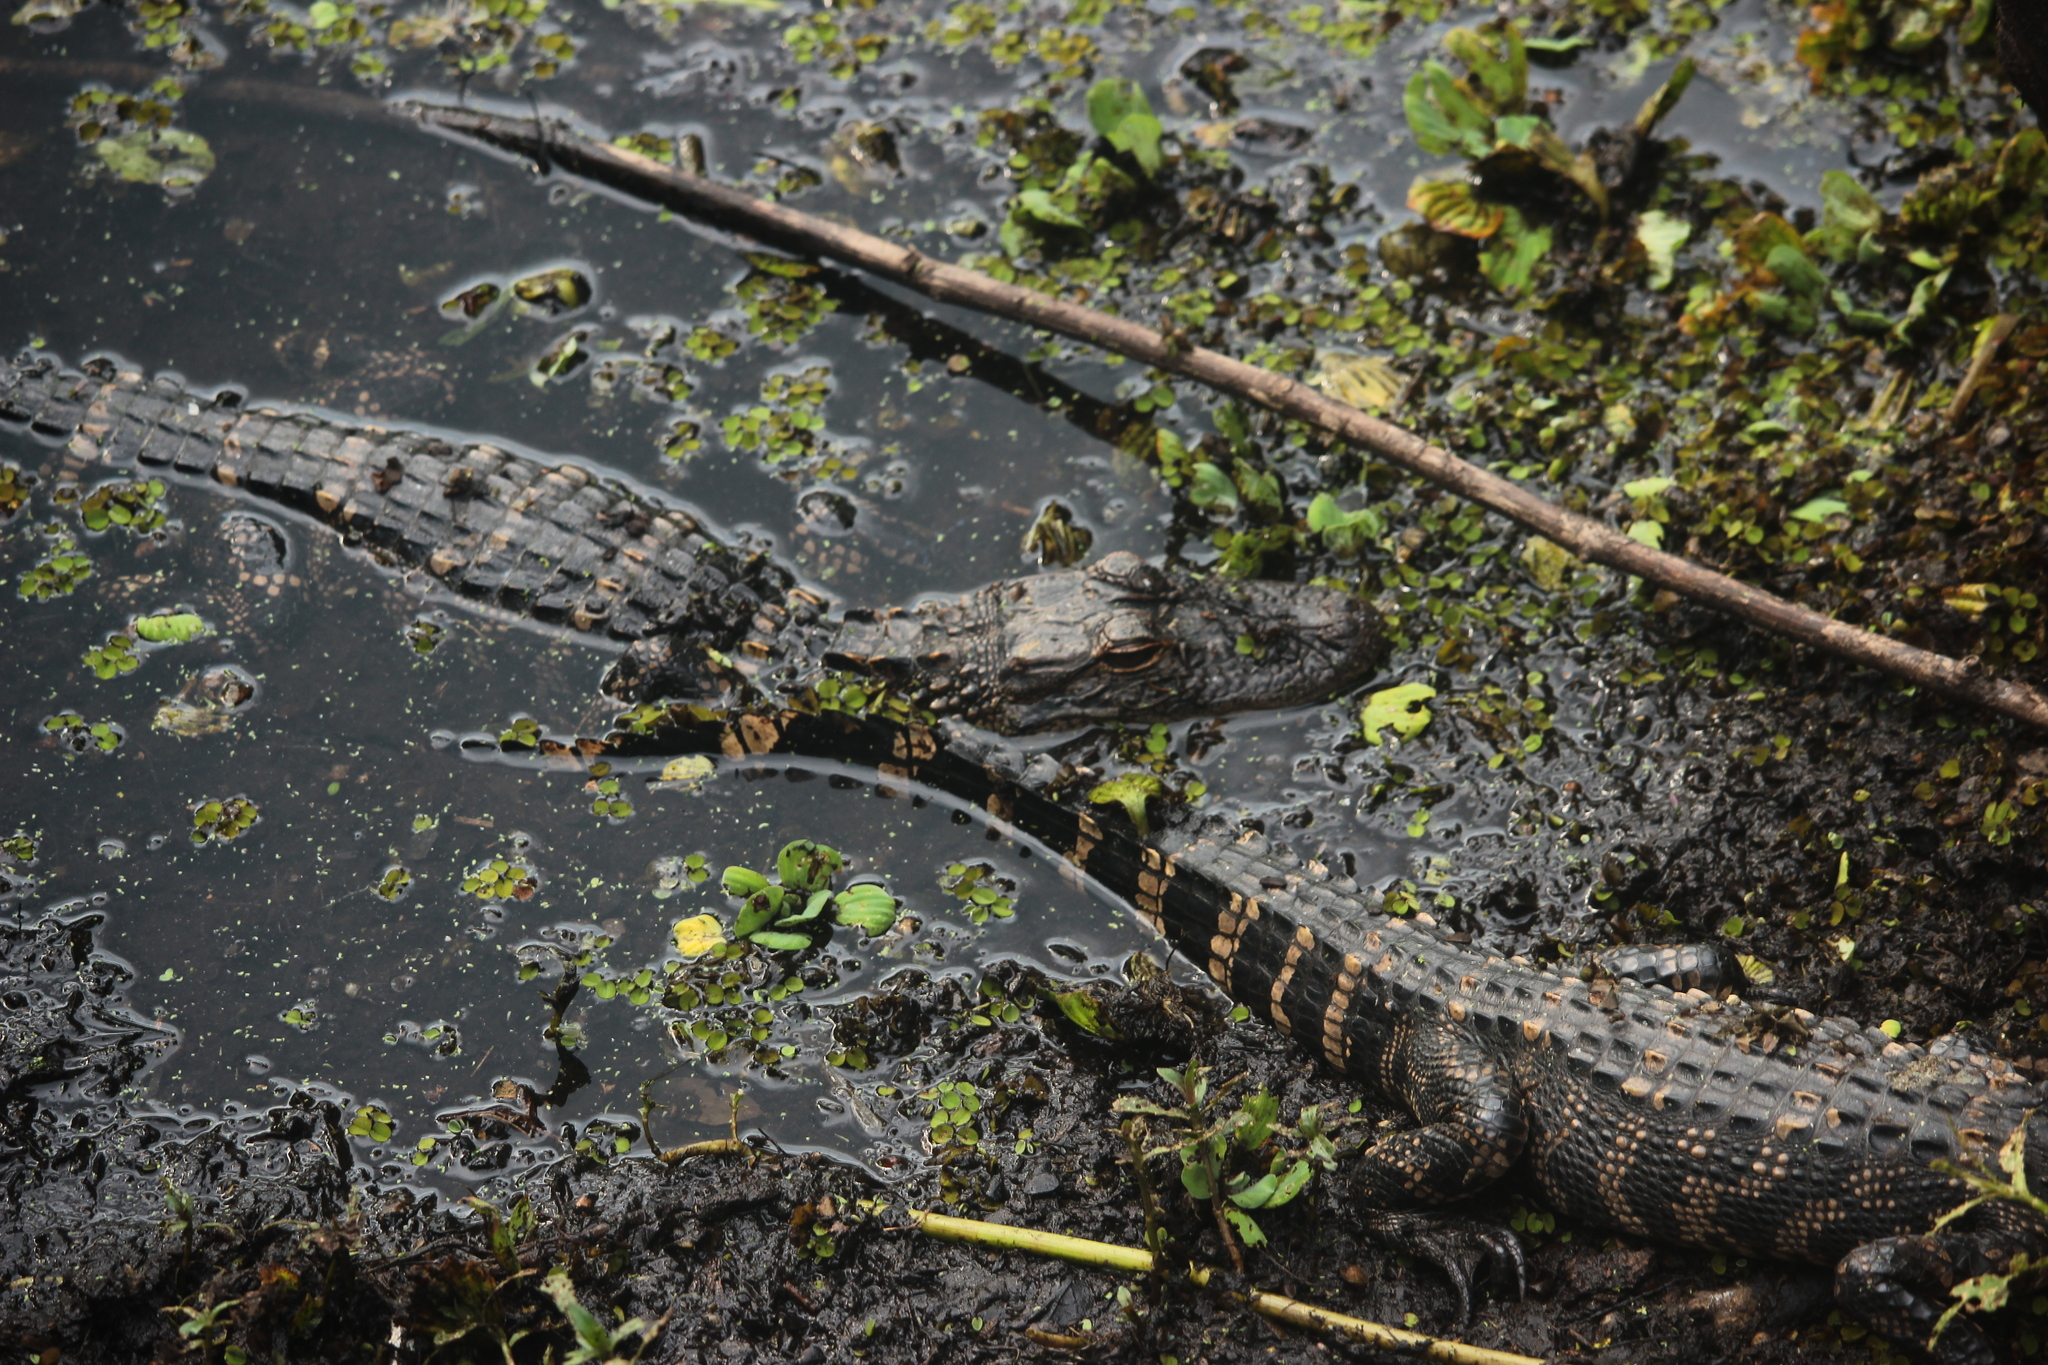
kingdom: Animalia
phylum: Chordata
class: Crocodylia
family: Alligatoridae
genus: Alligator
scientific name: Alligator mississippiensis
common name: American alligator
